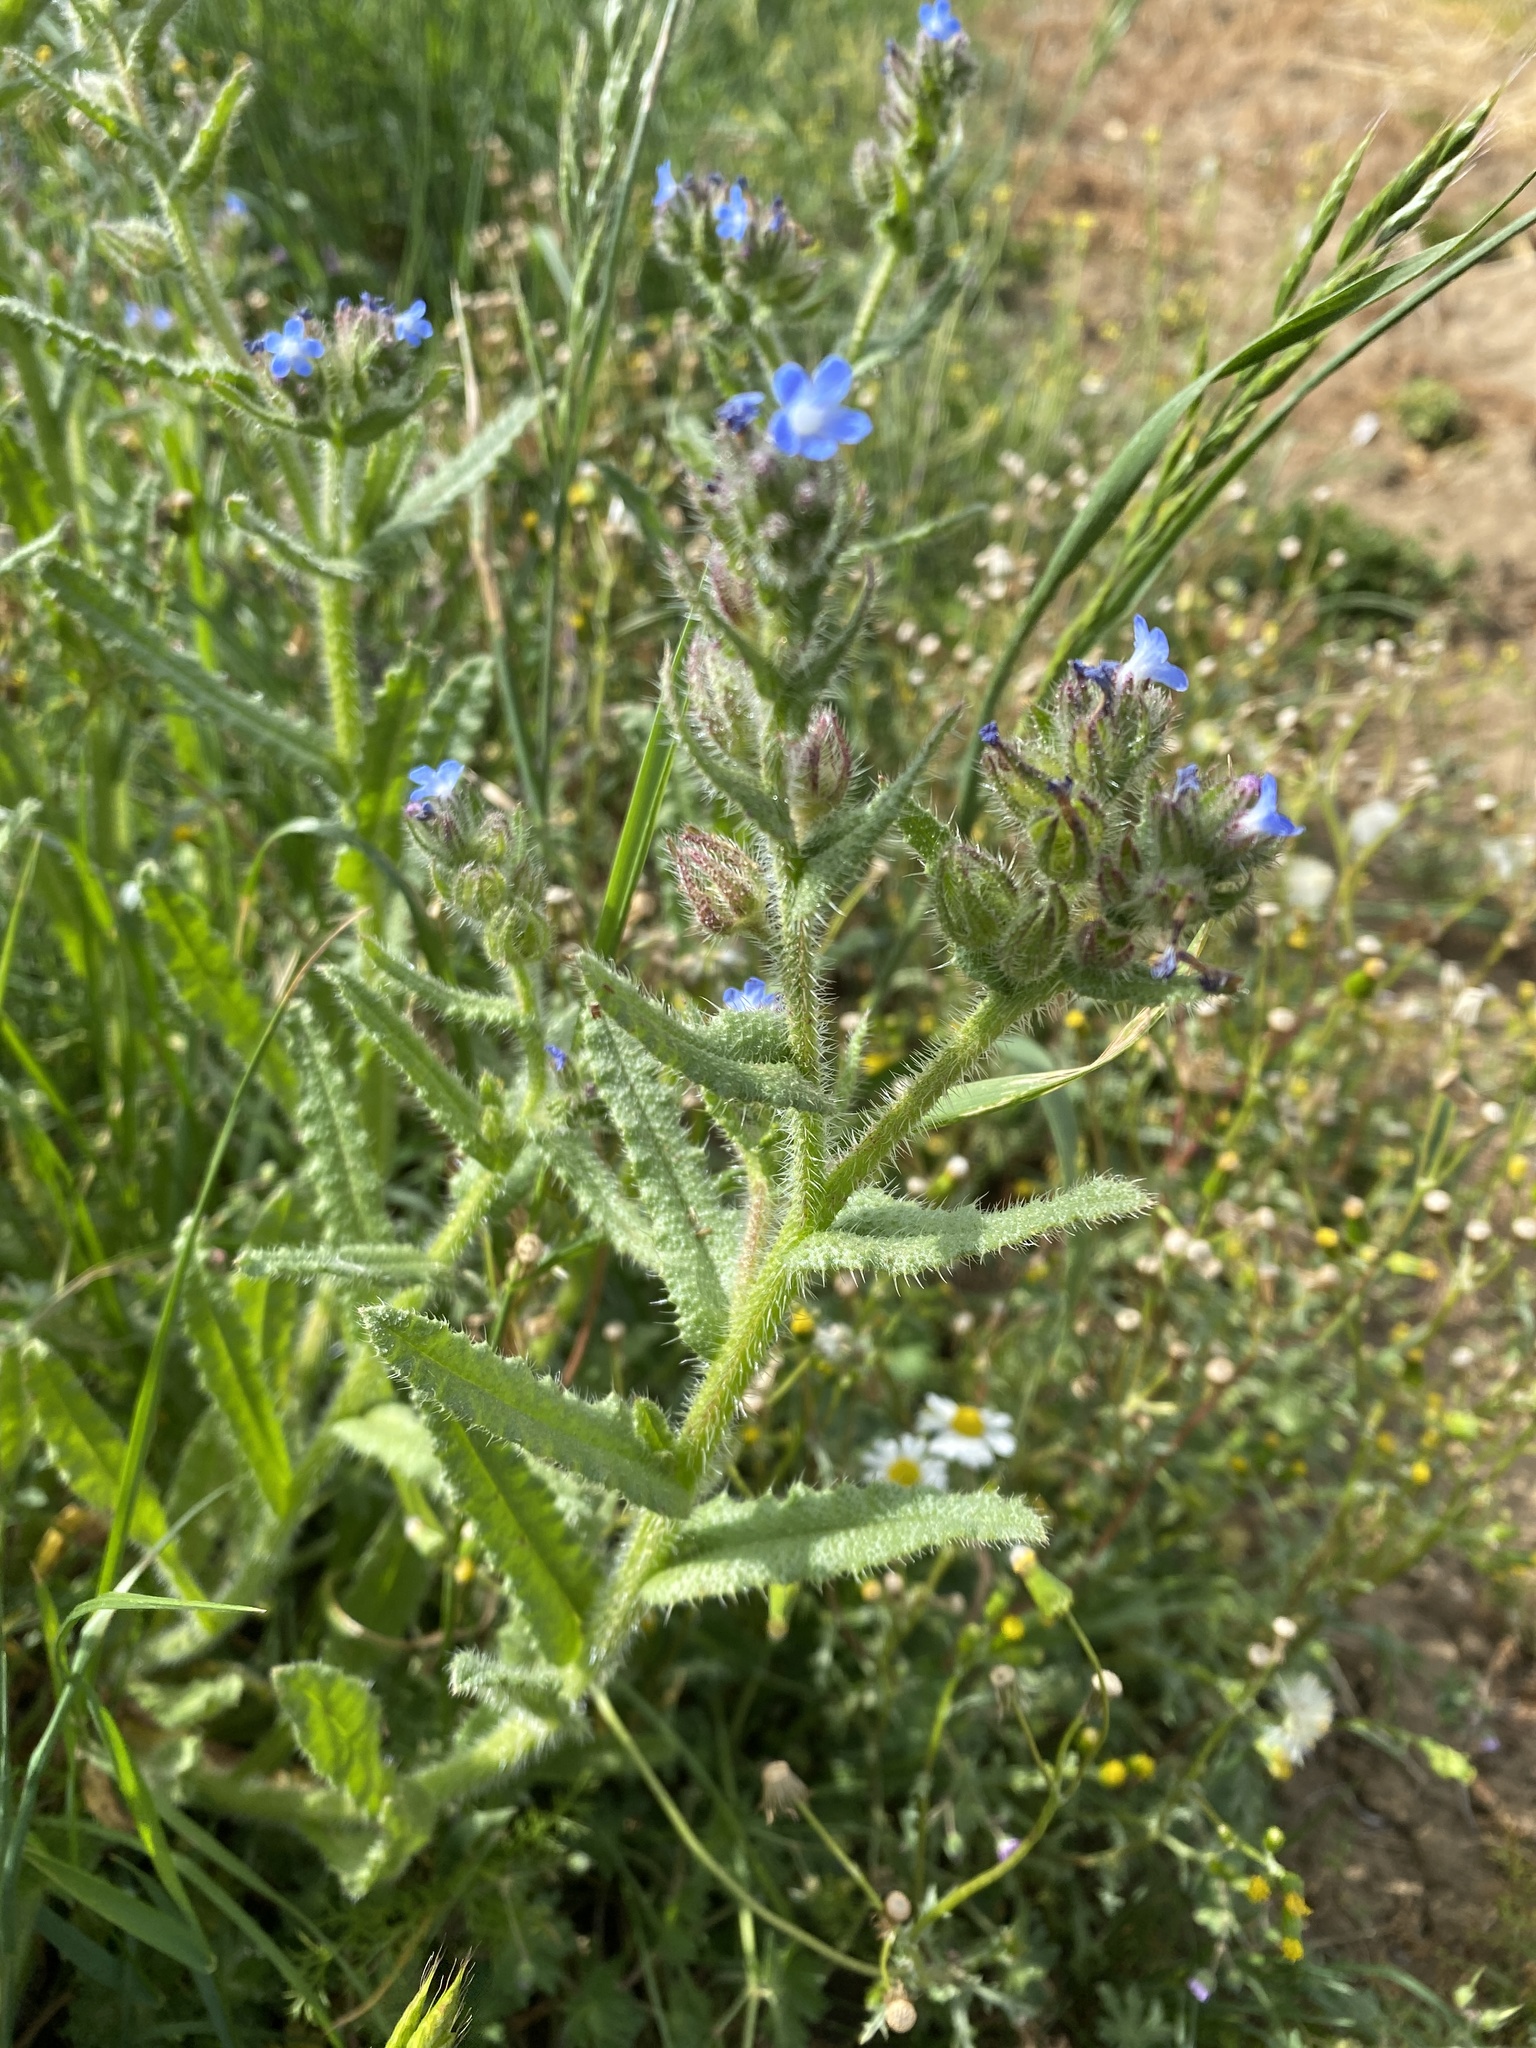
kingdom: Plantae
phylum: Tracheophyta
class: Magnoliopsida
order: Boraginales
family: Boraginaceae
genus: Lycopsis
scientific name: Lycopsis arvensis
